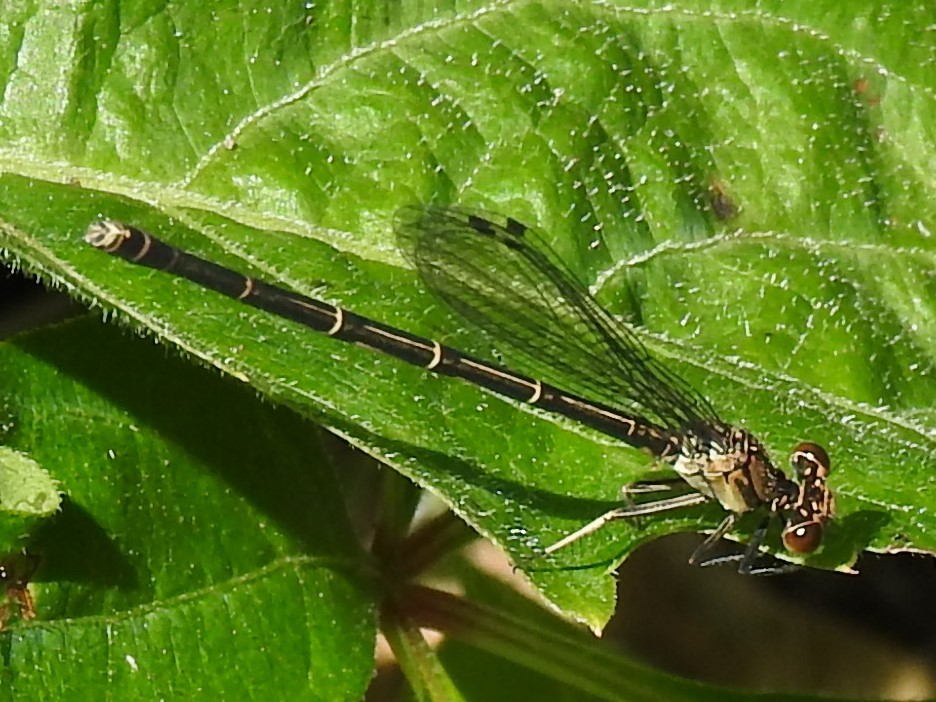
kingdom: Animalia
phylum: Arthropoda
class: Insecta
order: Odonata
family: Coenagrionidae
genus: Argia
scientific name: Argia tibialis
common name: Blue-tipped dancer
